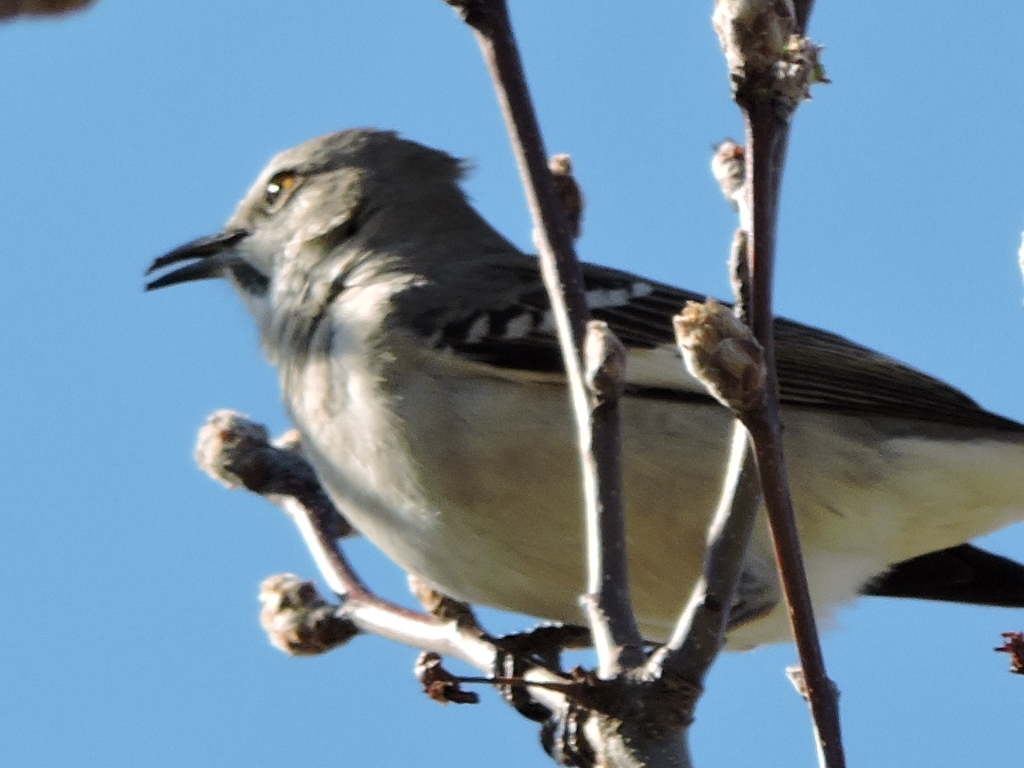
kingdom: Animalia
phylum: Chordata
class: Aves
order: Passeriformes
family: Mimidae
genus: Mimus
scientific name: Mimus polyglottos
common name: Northern mockingbird
